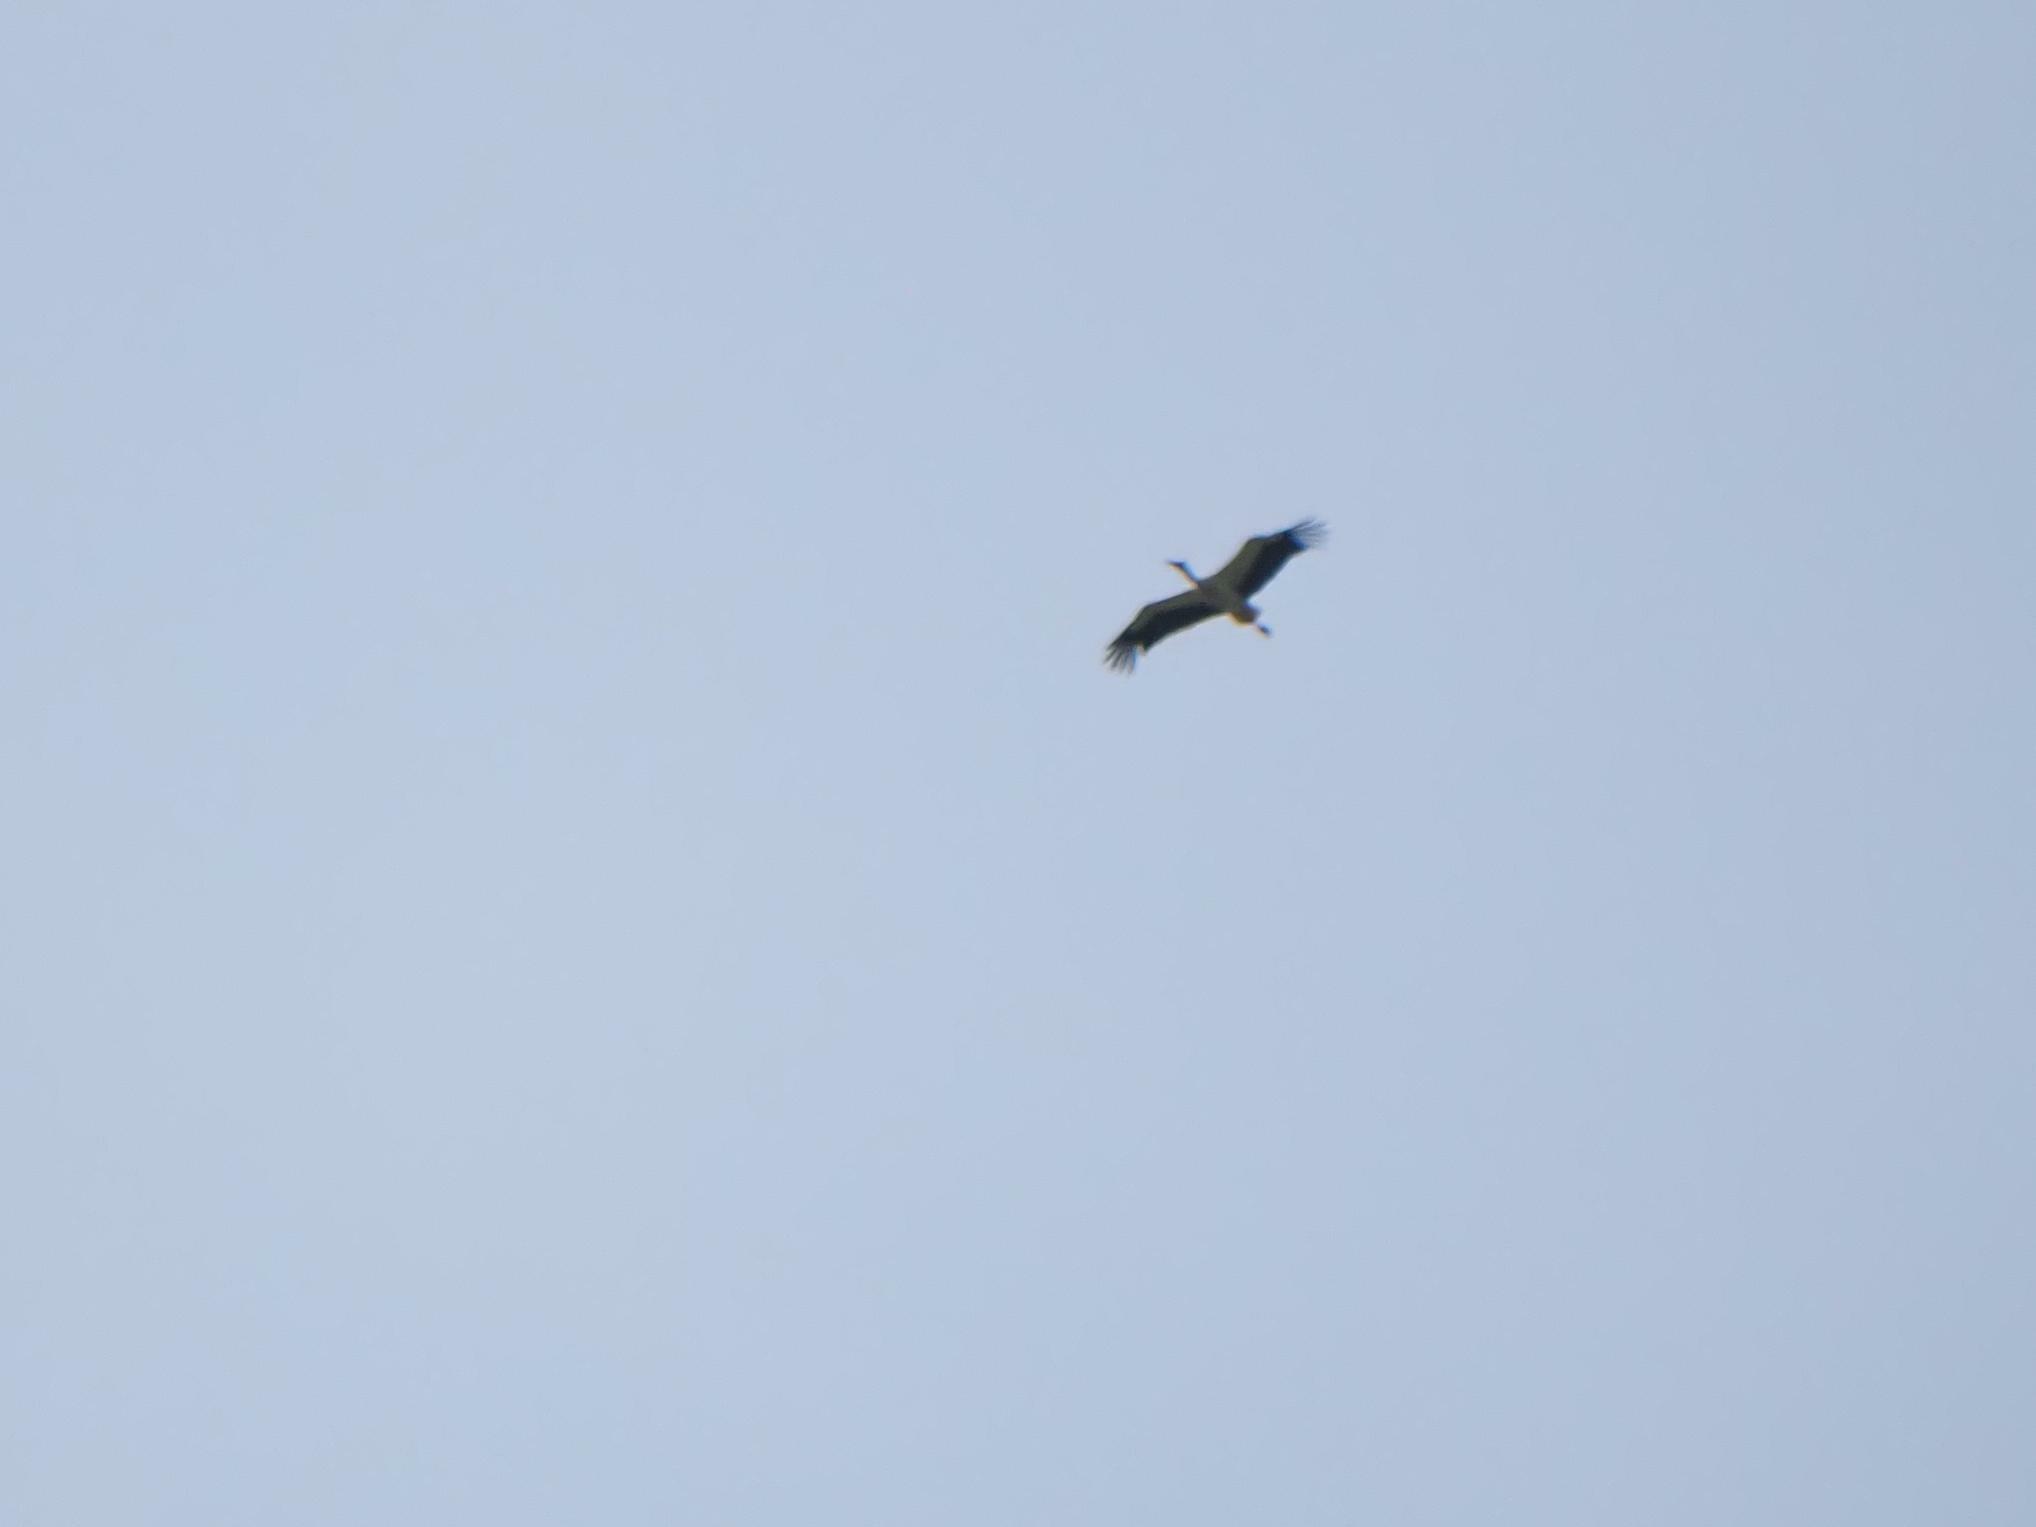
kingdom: Animalia
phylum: Chordata
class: Aves
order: Ciconiiformes
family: Ciconiidae
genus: Ciconia
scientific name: Ciconia ciconia
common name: White stork
